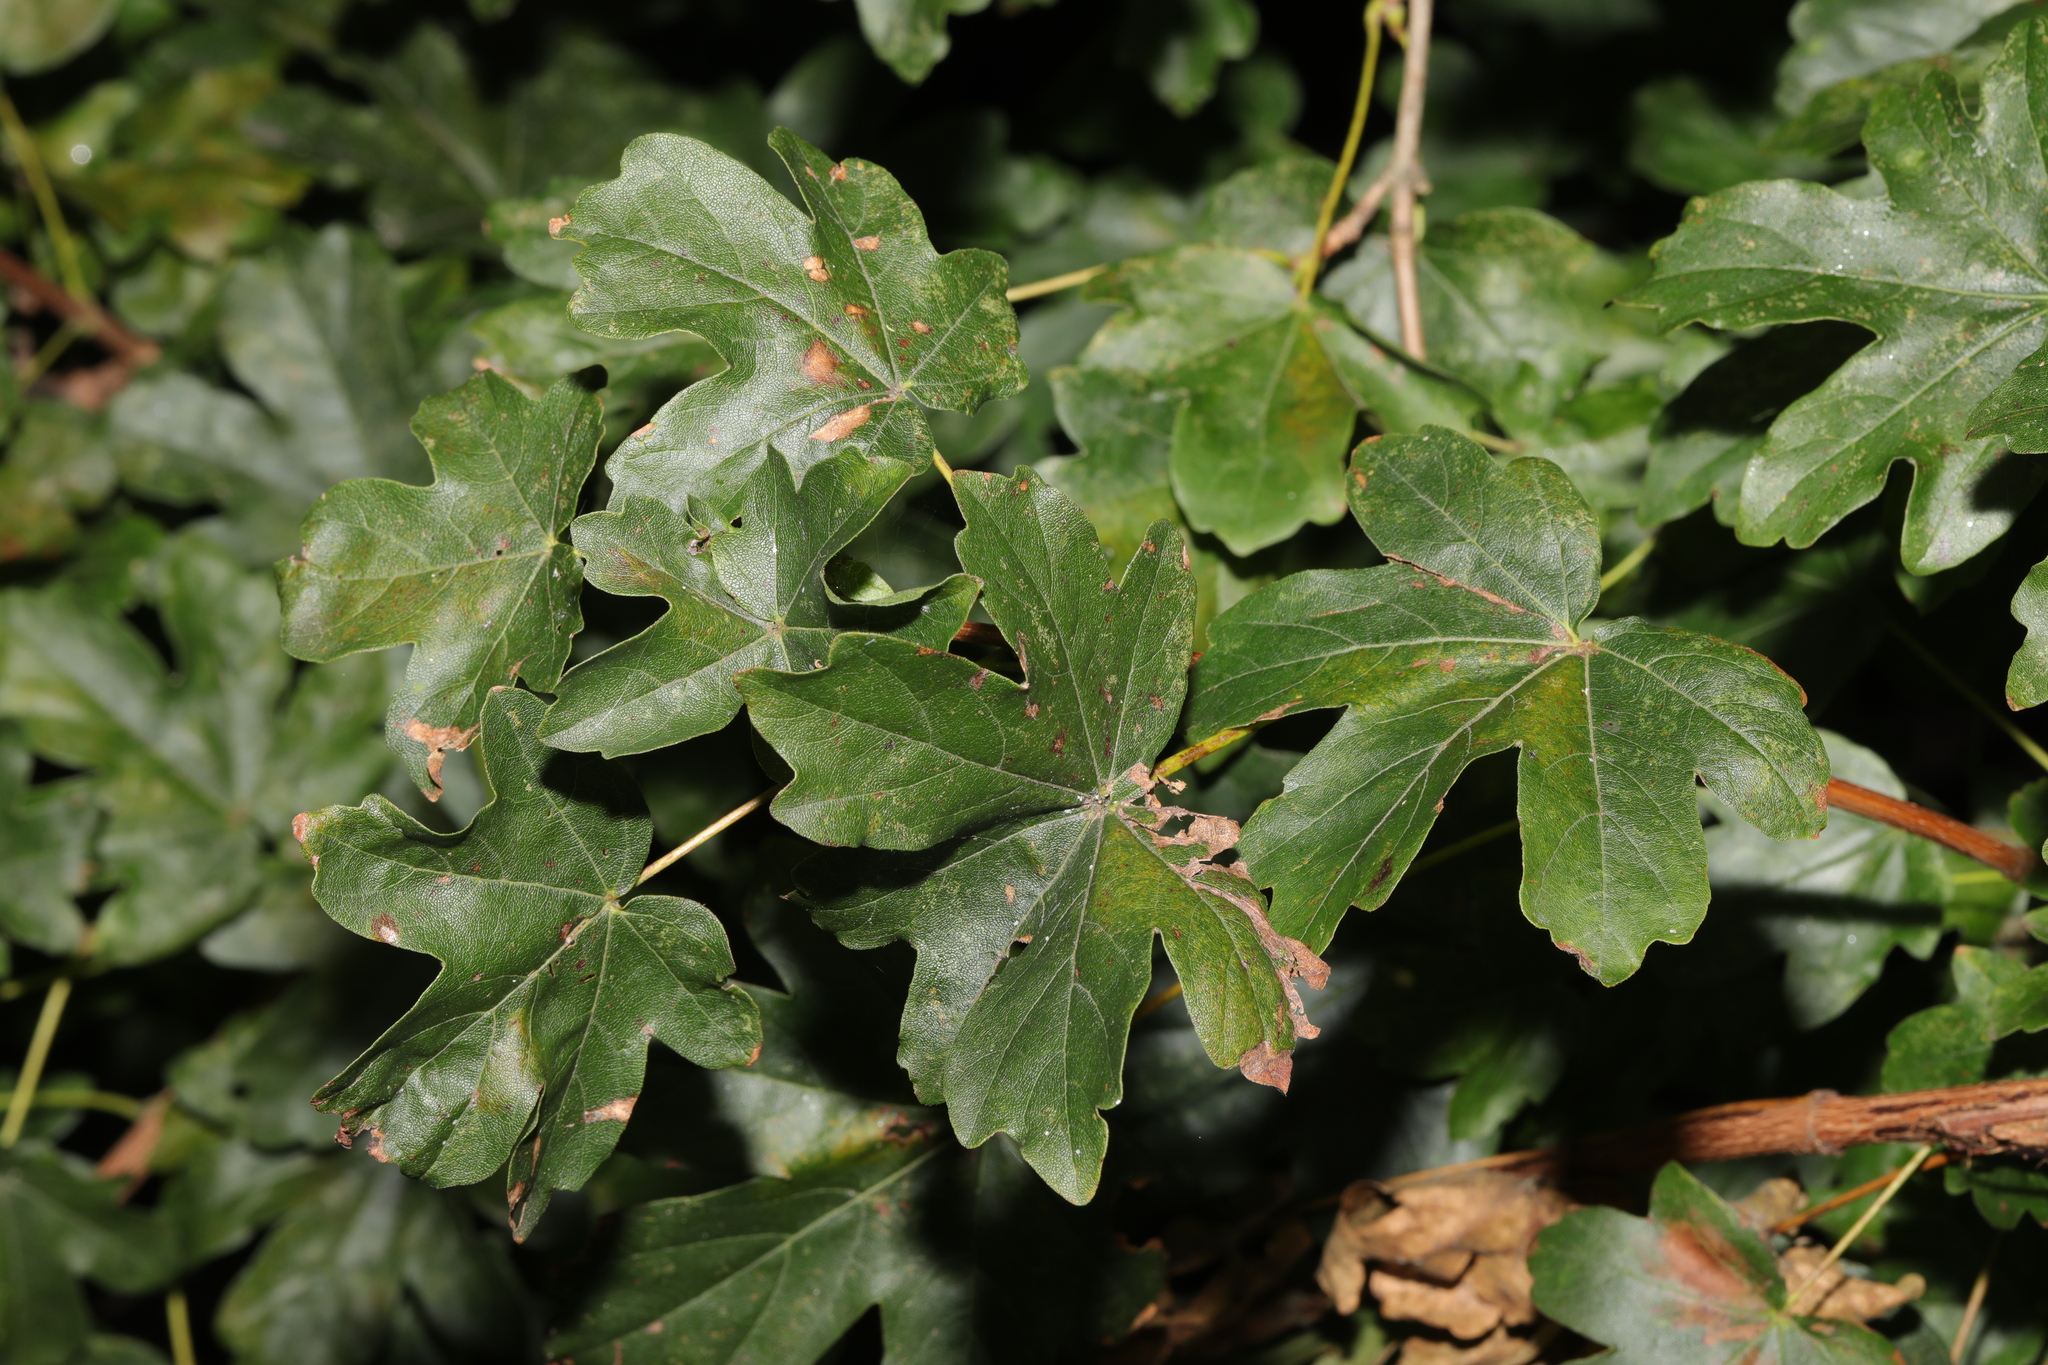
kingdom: Plantae
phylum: Tracheophyta
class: Magnoliopsida
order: Sapindales
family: Sapindaceae
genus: Acer
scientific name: Acer campestre
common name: Field maple
